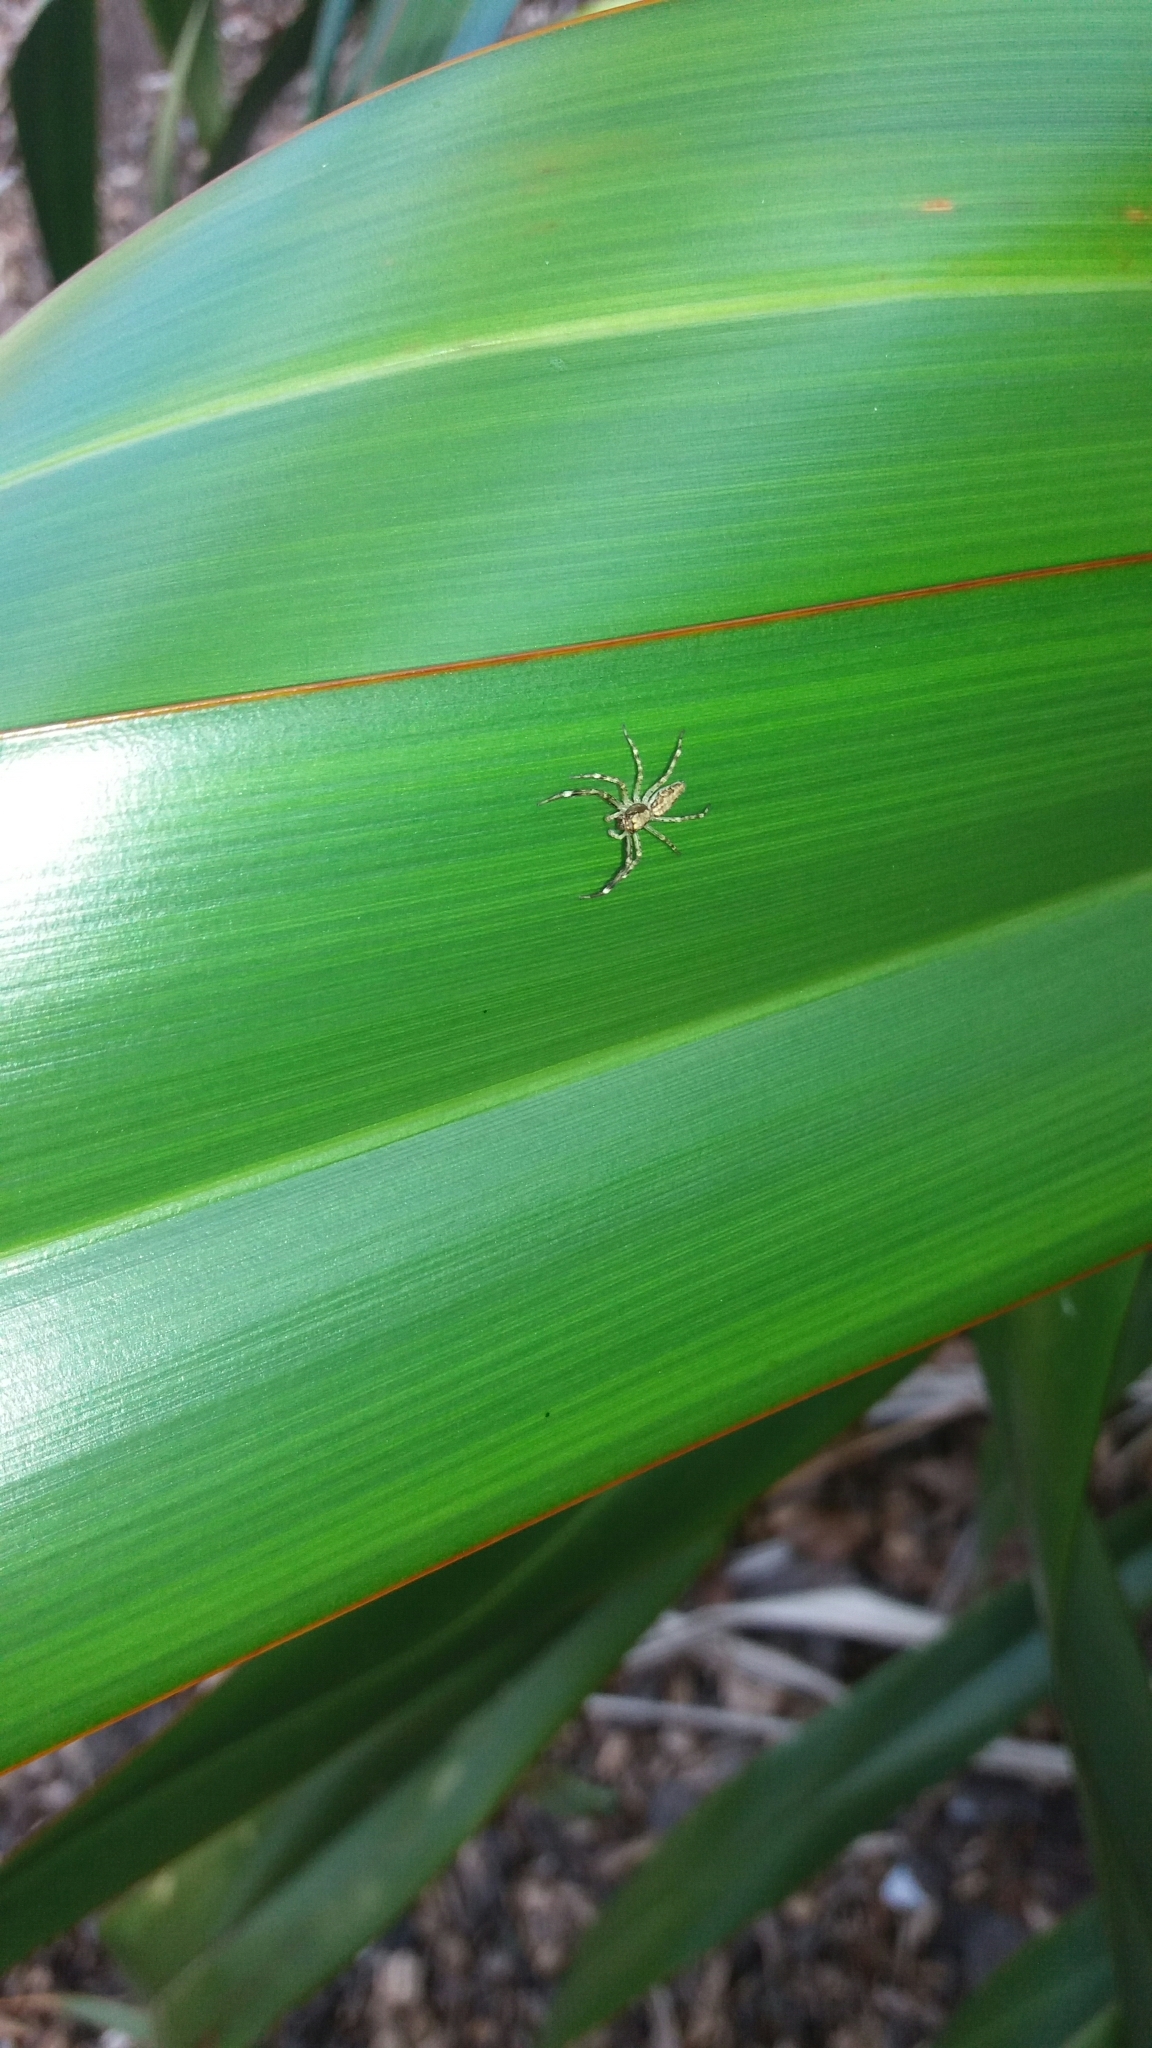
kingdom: Animalia
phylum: Arthropoda
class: Arachnida
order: Araneae
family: Salticidae
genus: Helpis
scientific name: Helpis minitabunda
